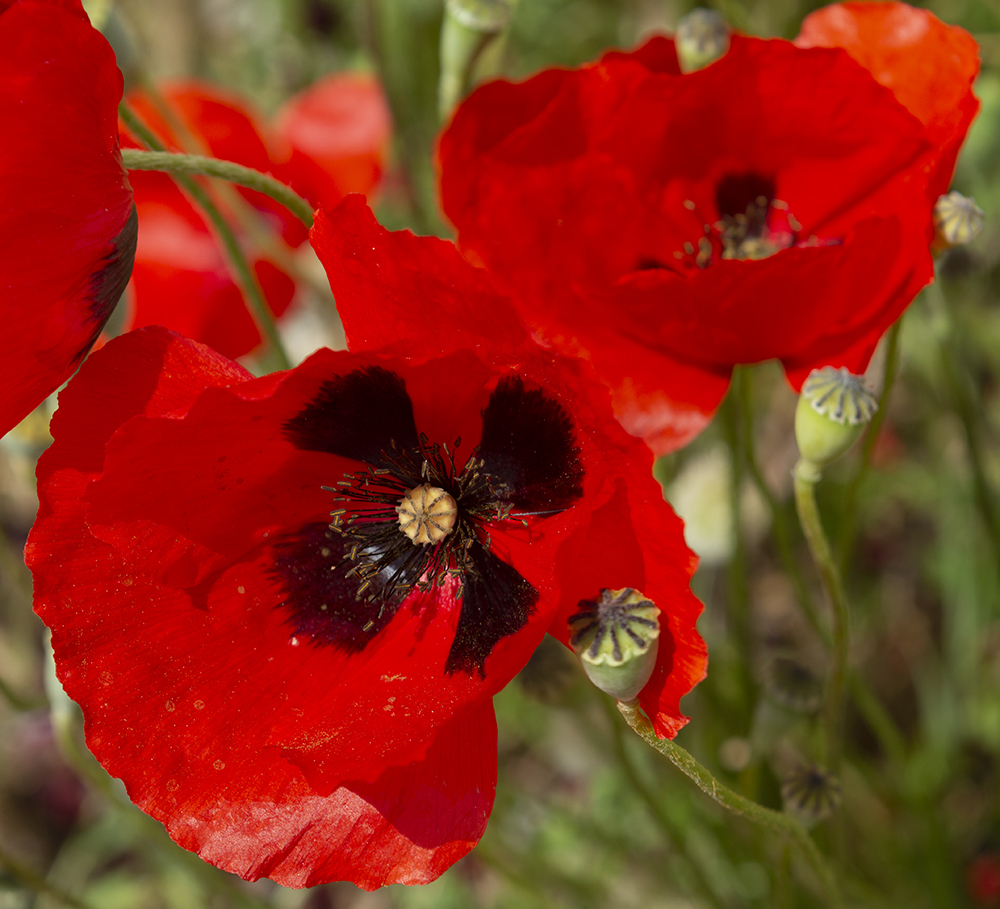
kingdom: Plantae
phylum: Tracheophyta
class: Magnoliopsida
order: Ranunculales
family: Papaveraceae
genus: Papaver
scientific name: Papaver rhoeas
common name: Corn poppy
